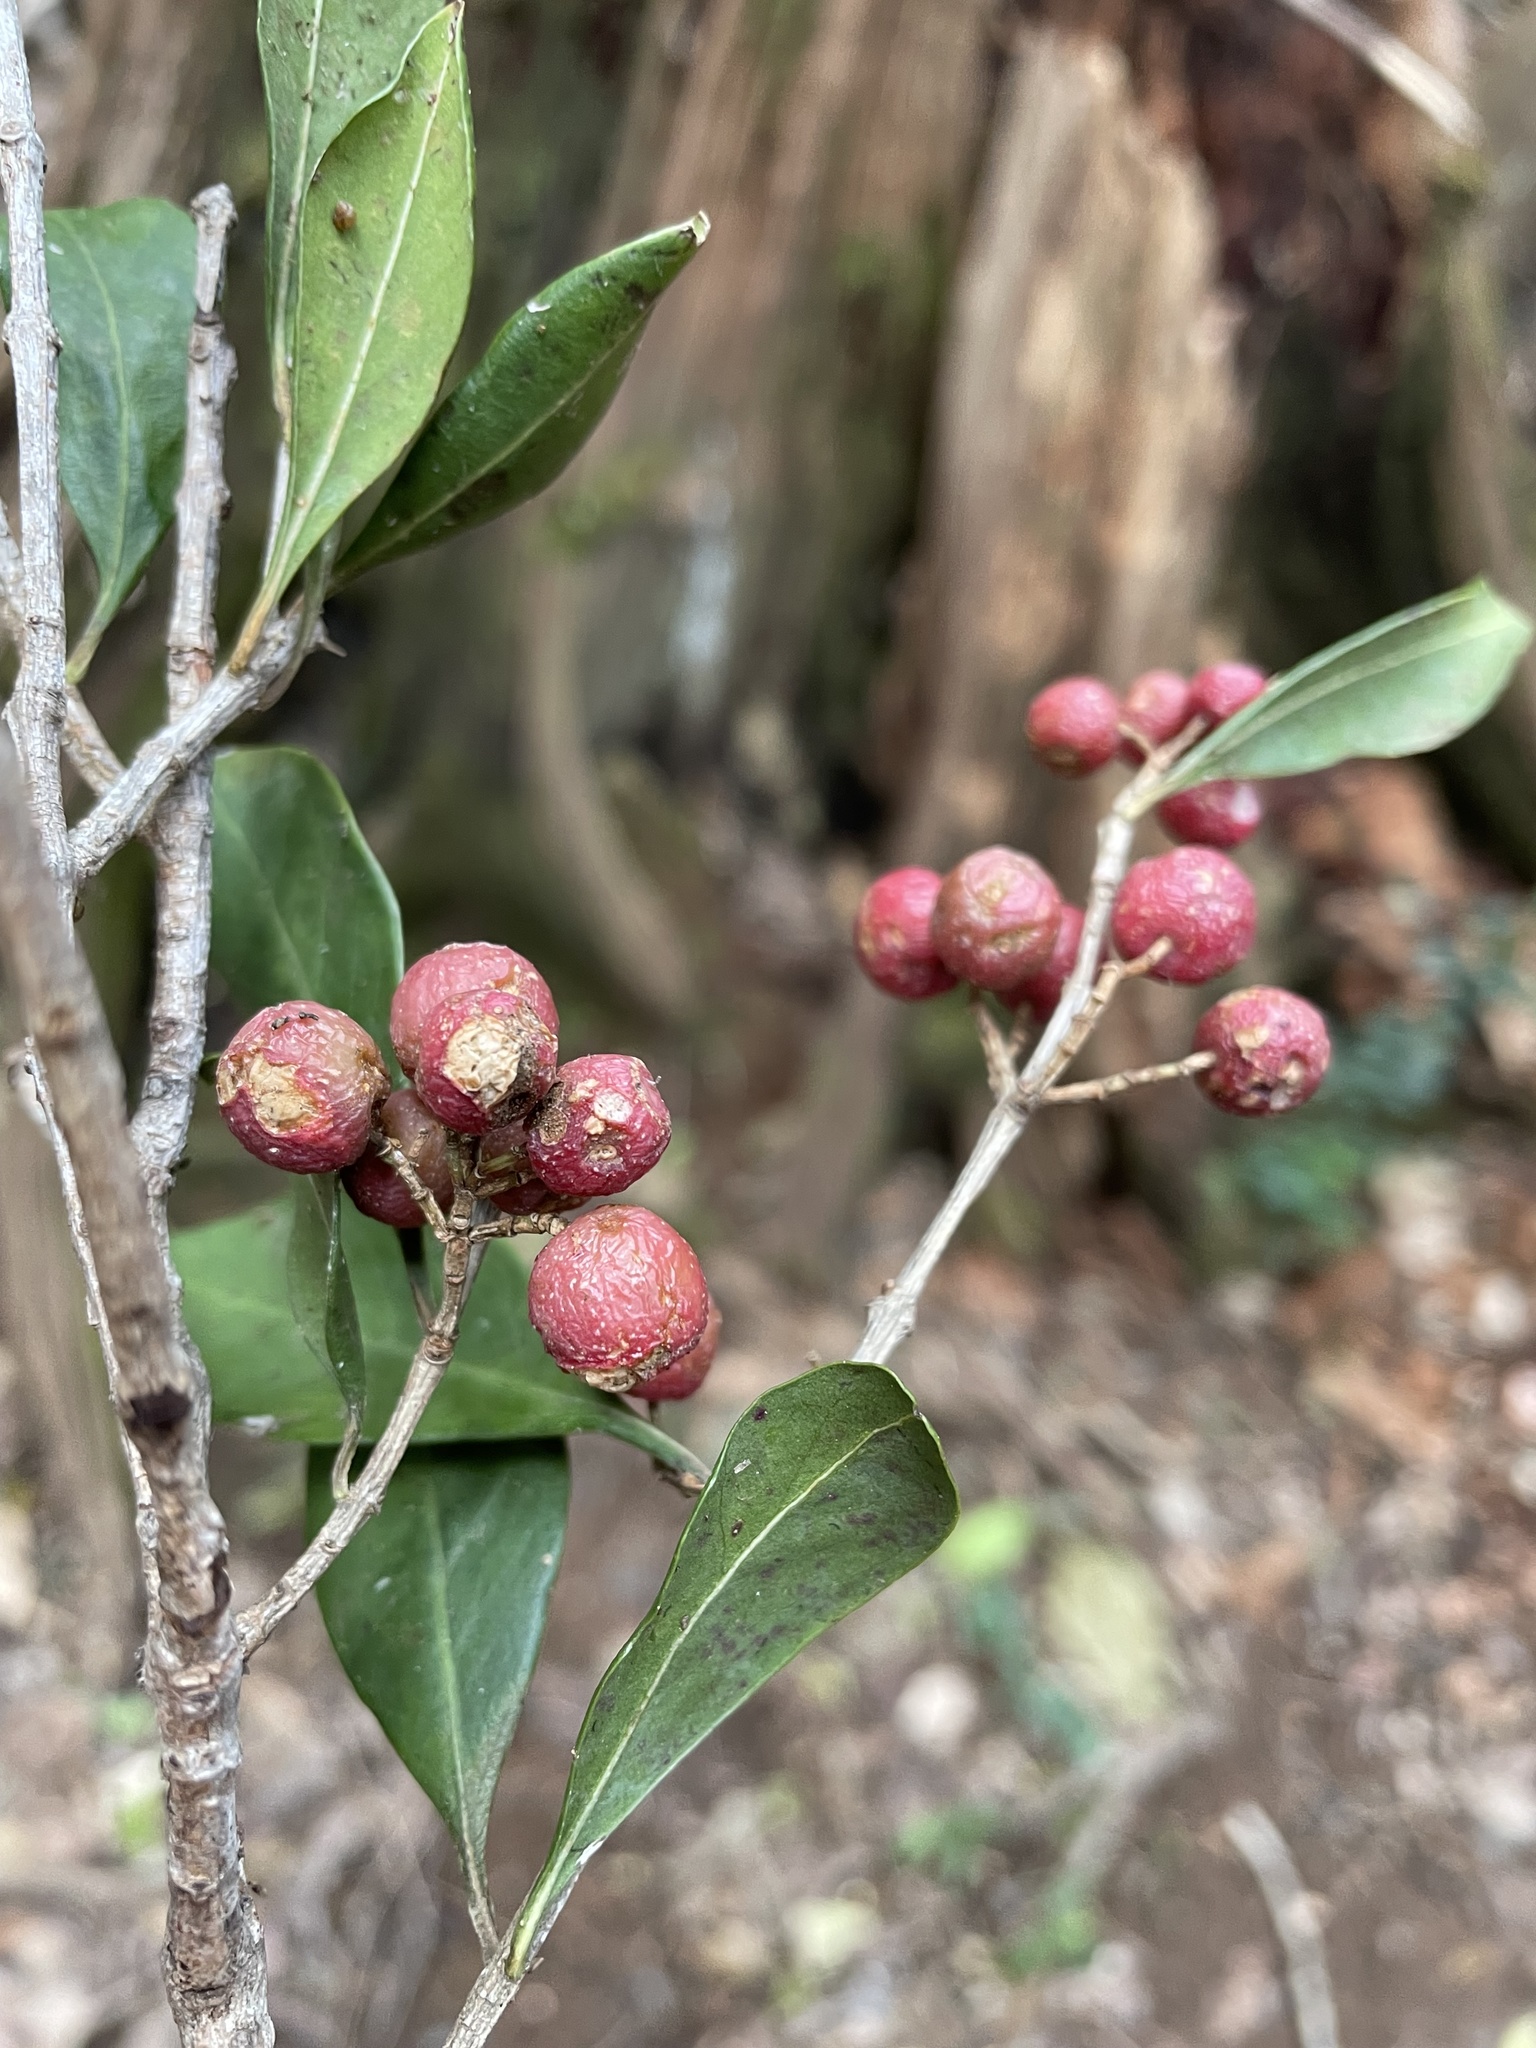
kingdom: Plantae
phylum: Tracheophyta
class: Magnoliopsida
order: Myrtales
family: Penaeaceae
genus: Olinia
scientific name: Olinia ventosa
